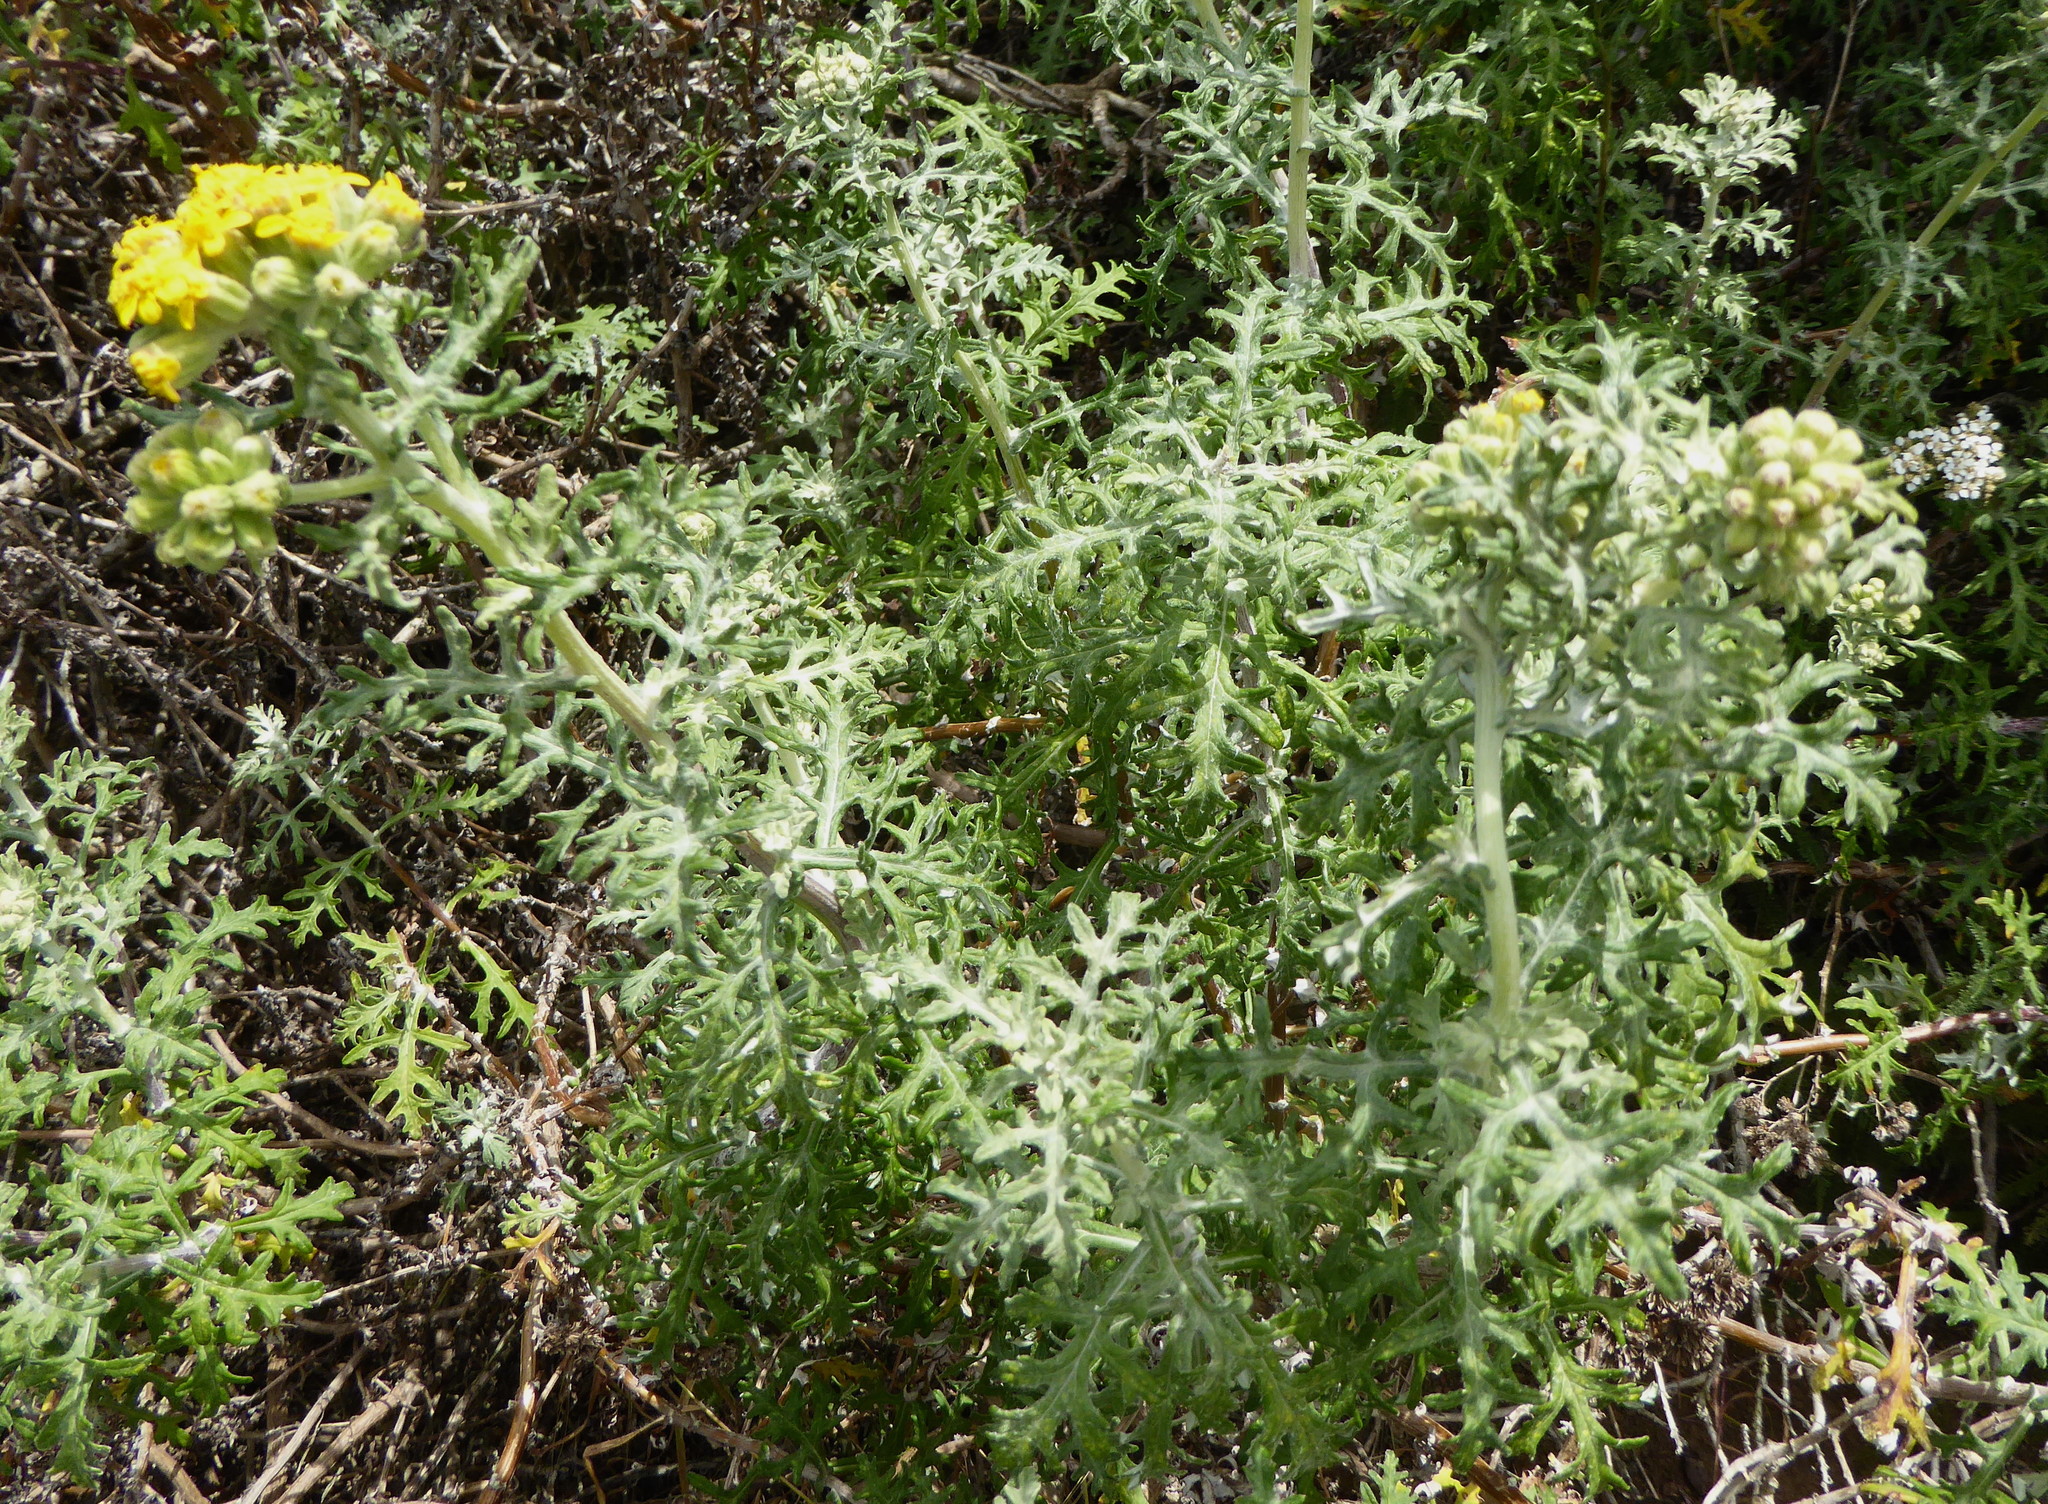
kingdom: Plantae
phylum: Tracheophyta
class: Magnoliopsida
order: Asterales
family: Asteraceae
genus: Eriophyllum
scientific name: Eriophyllum staechadifolium
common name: Lizardtail
